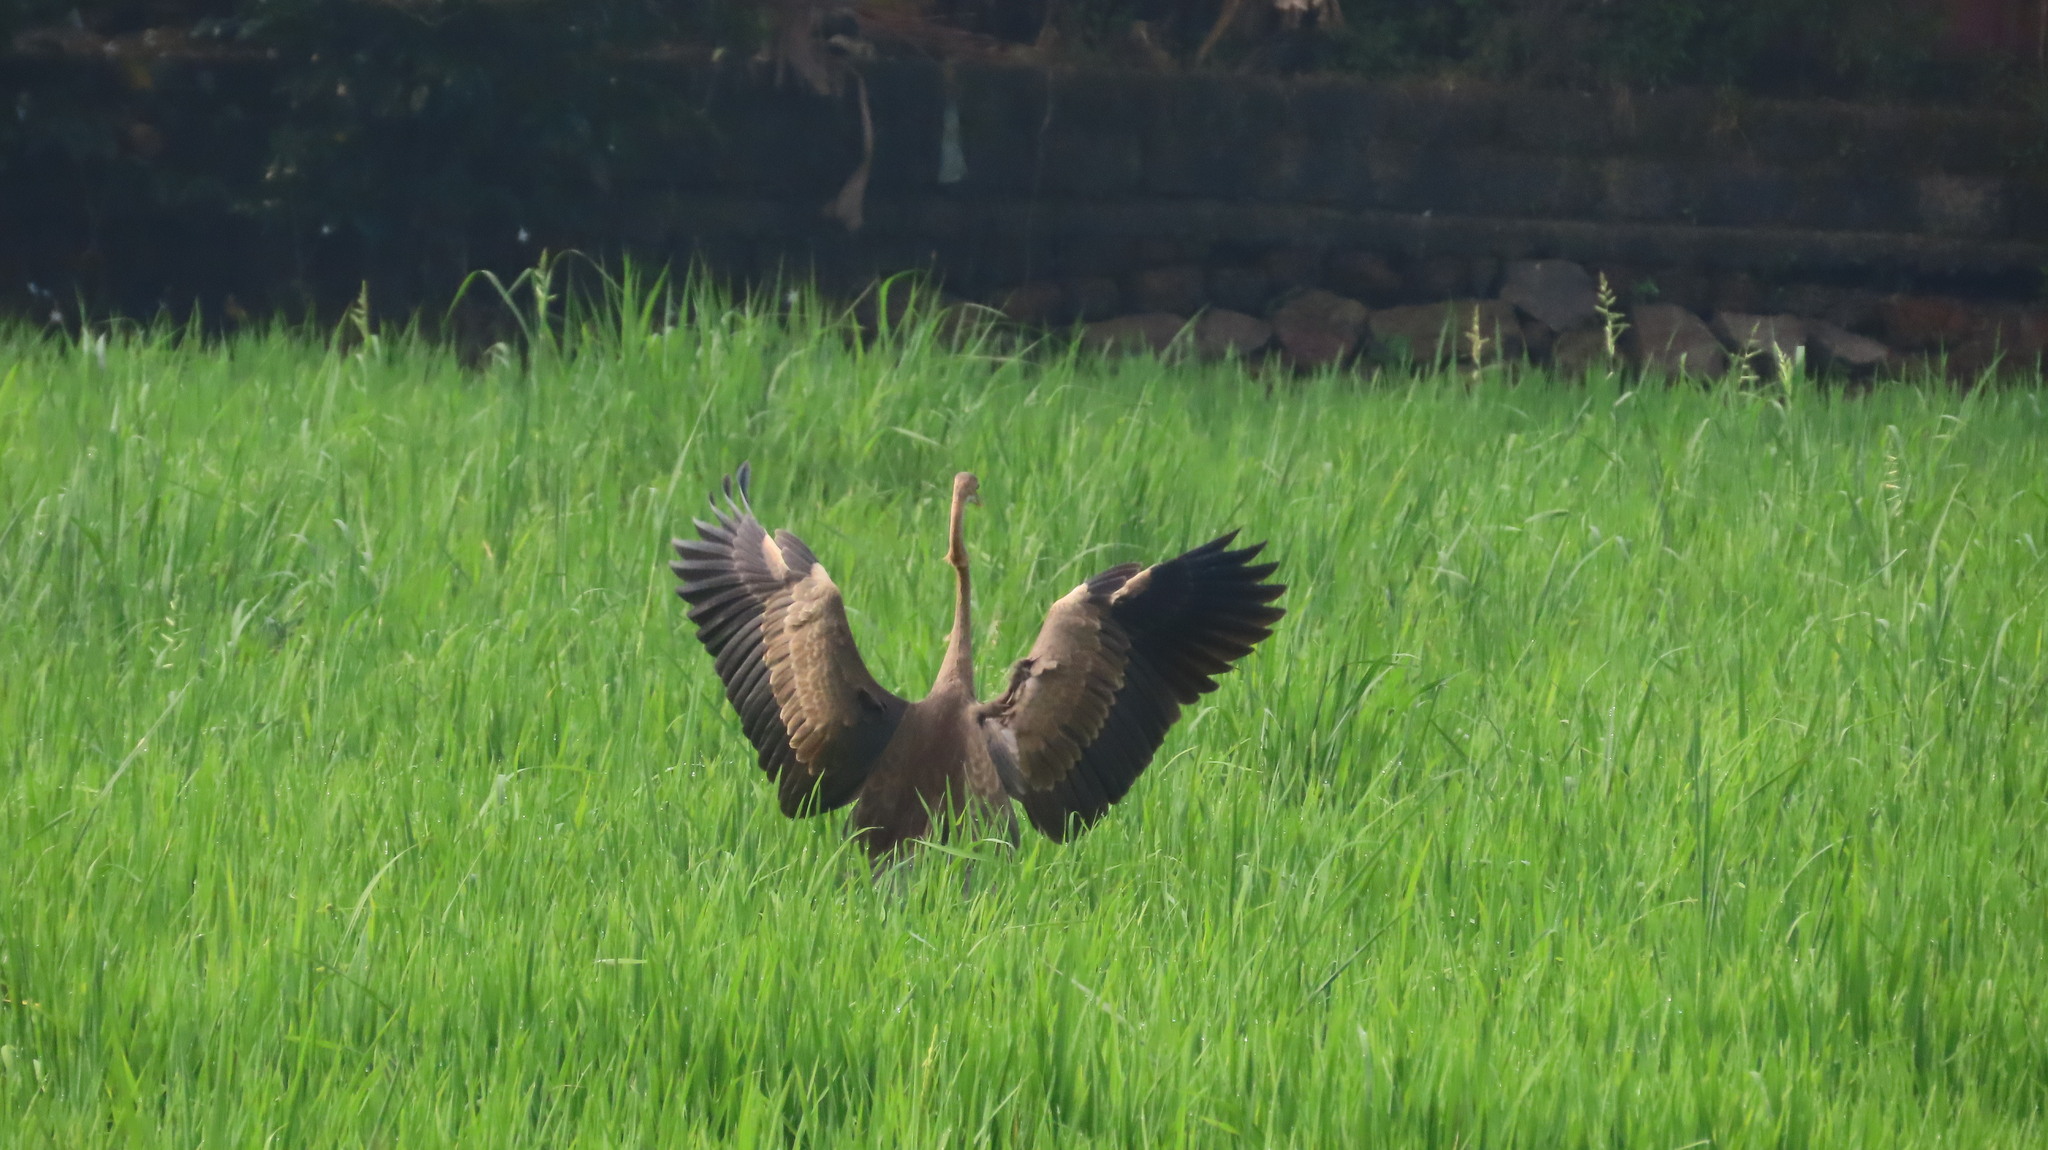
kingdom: Animalia
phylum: Chordata
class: Aves
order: Pelecaniformes
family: Ardeidae
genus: Ardea
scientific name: Ardea purpurea
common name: Purple heron
